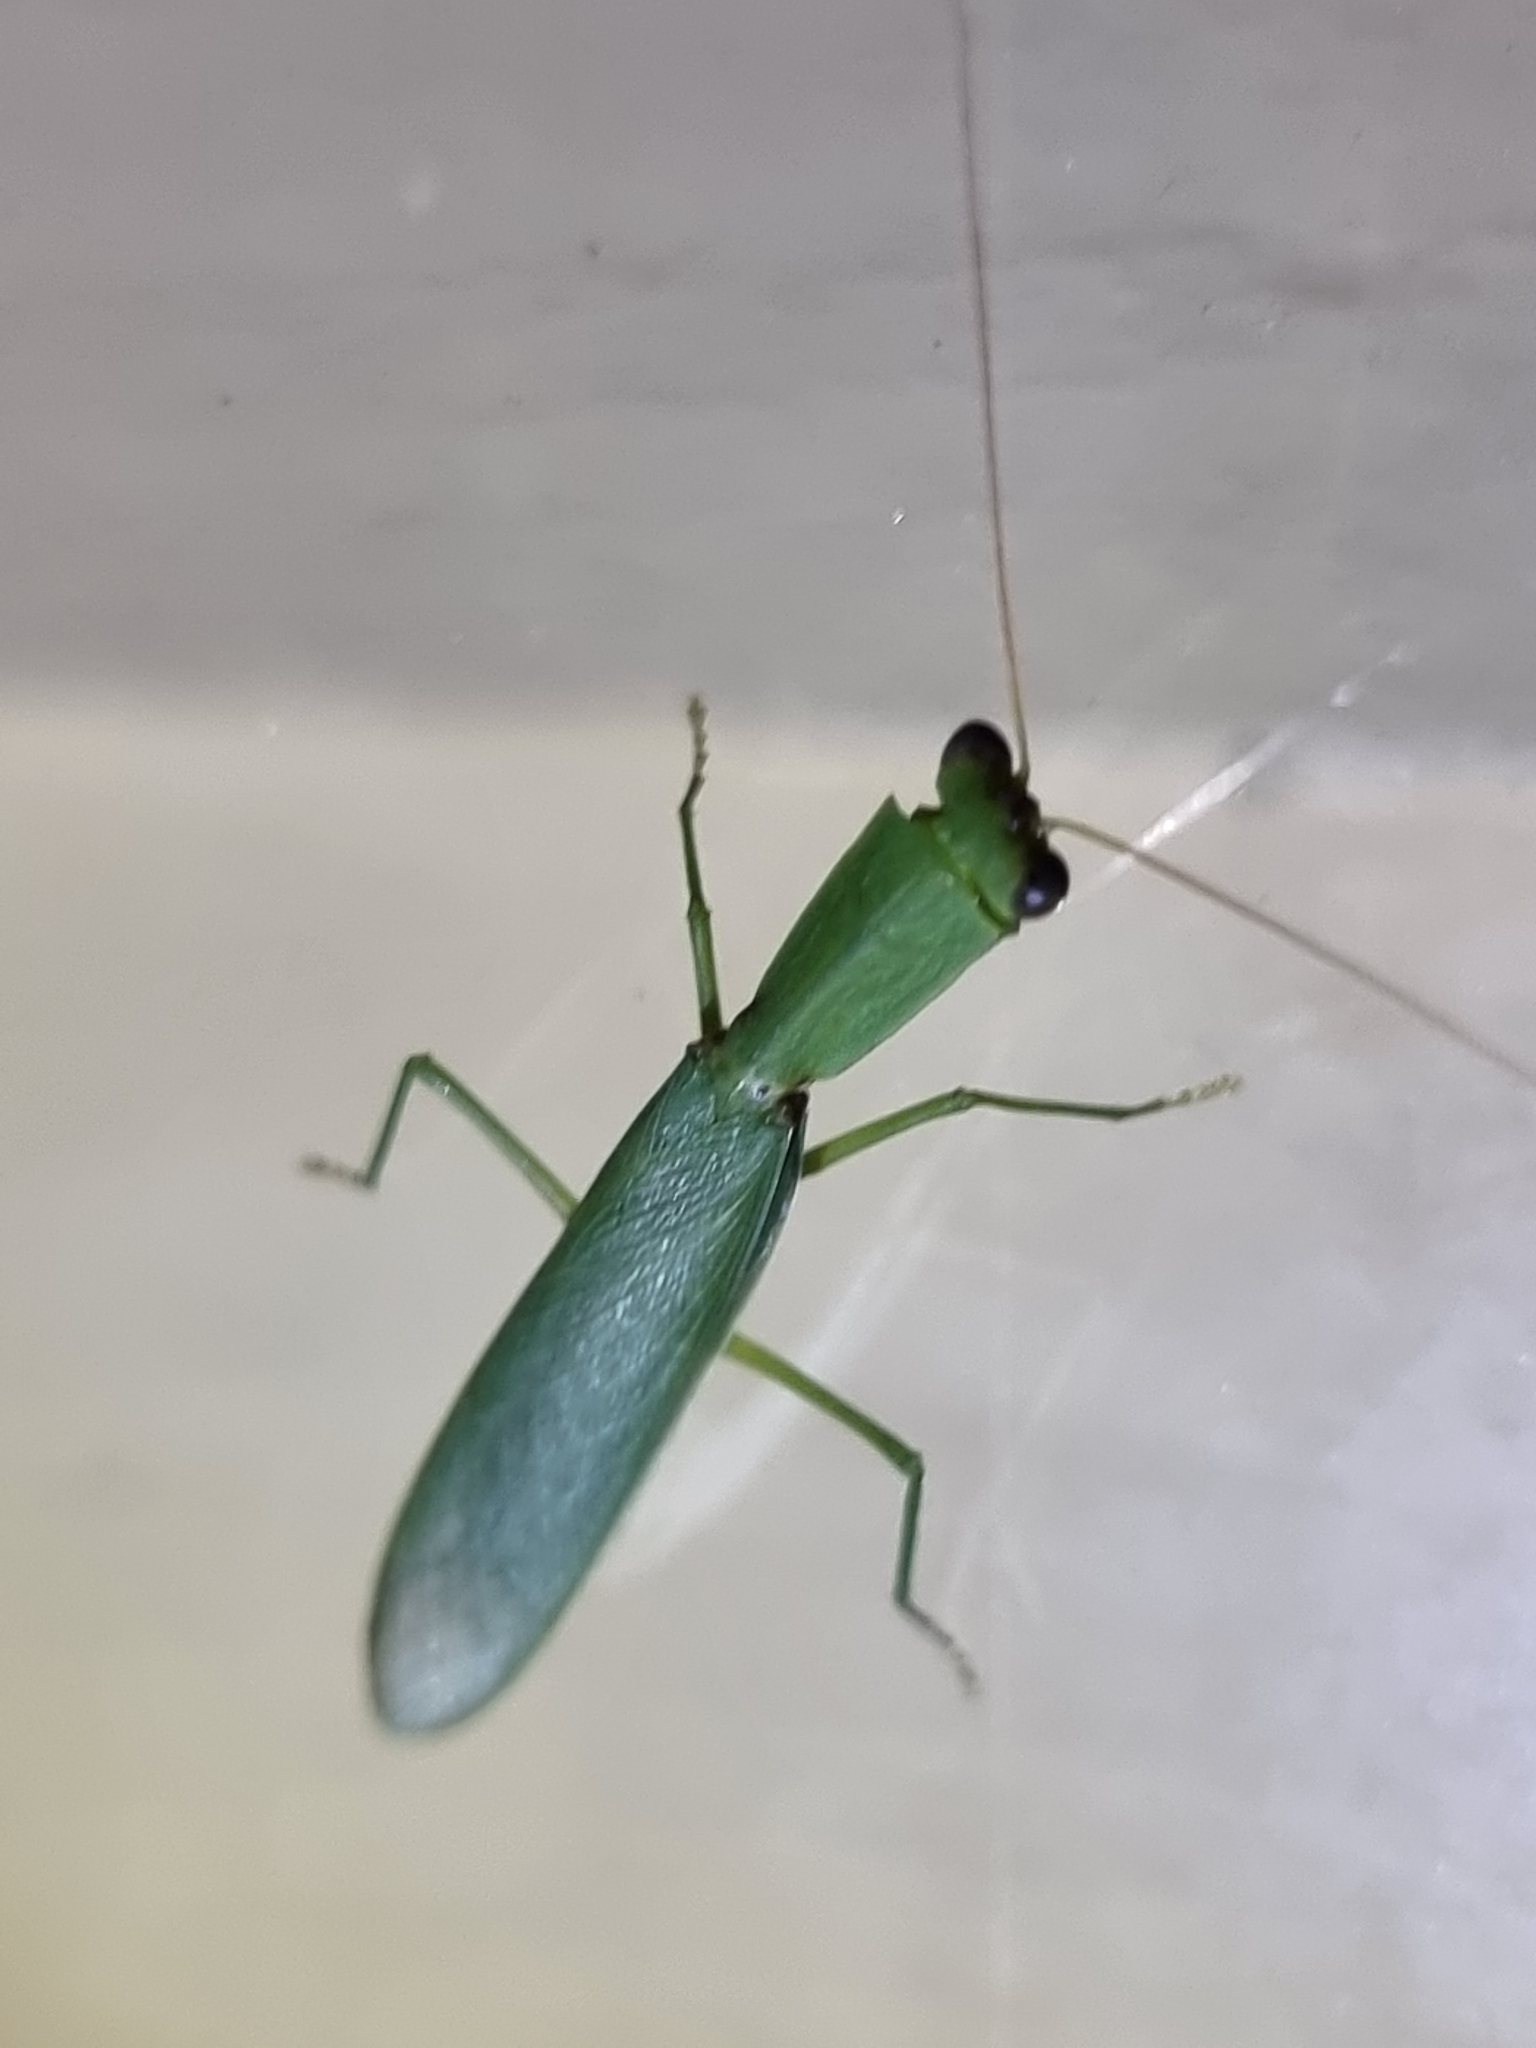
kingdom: Animalia
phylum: Arthropoda
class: Insecta
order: Mantodea
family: Mantidae
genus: Orthodera
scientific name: Orthodera ministralis
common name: Mantis
